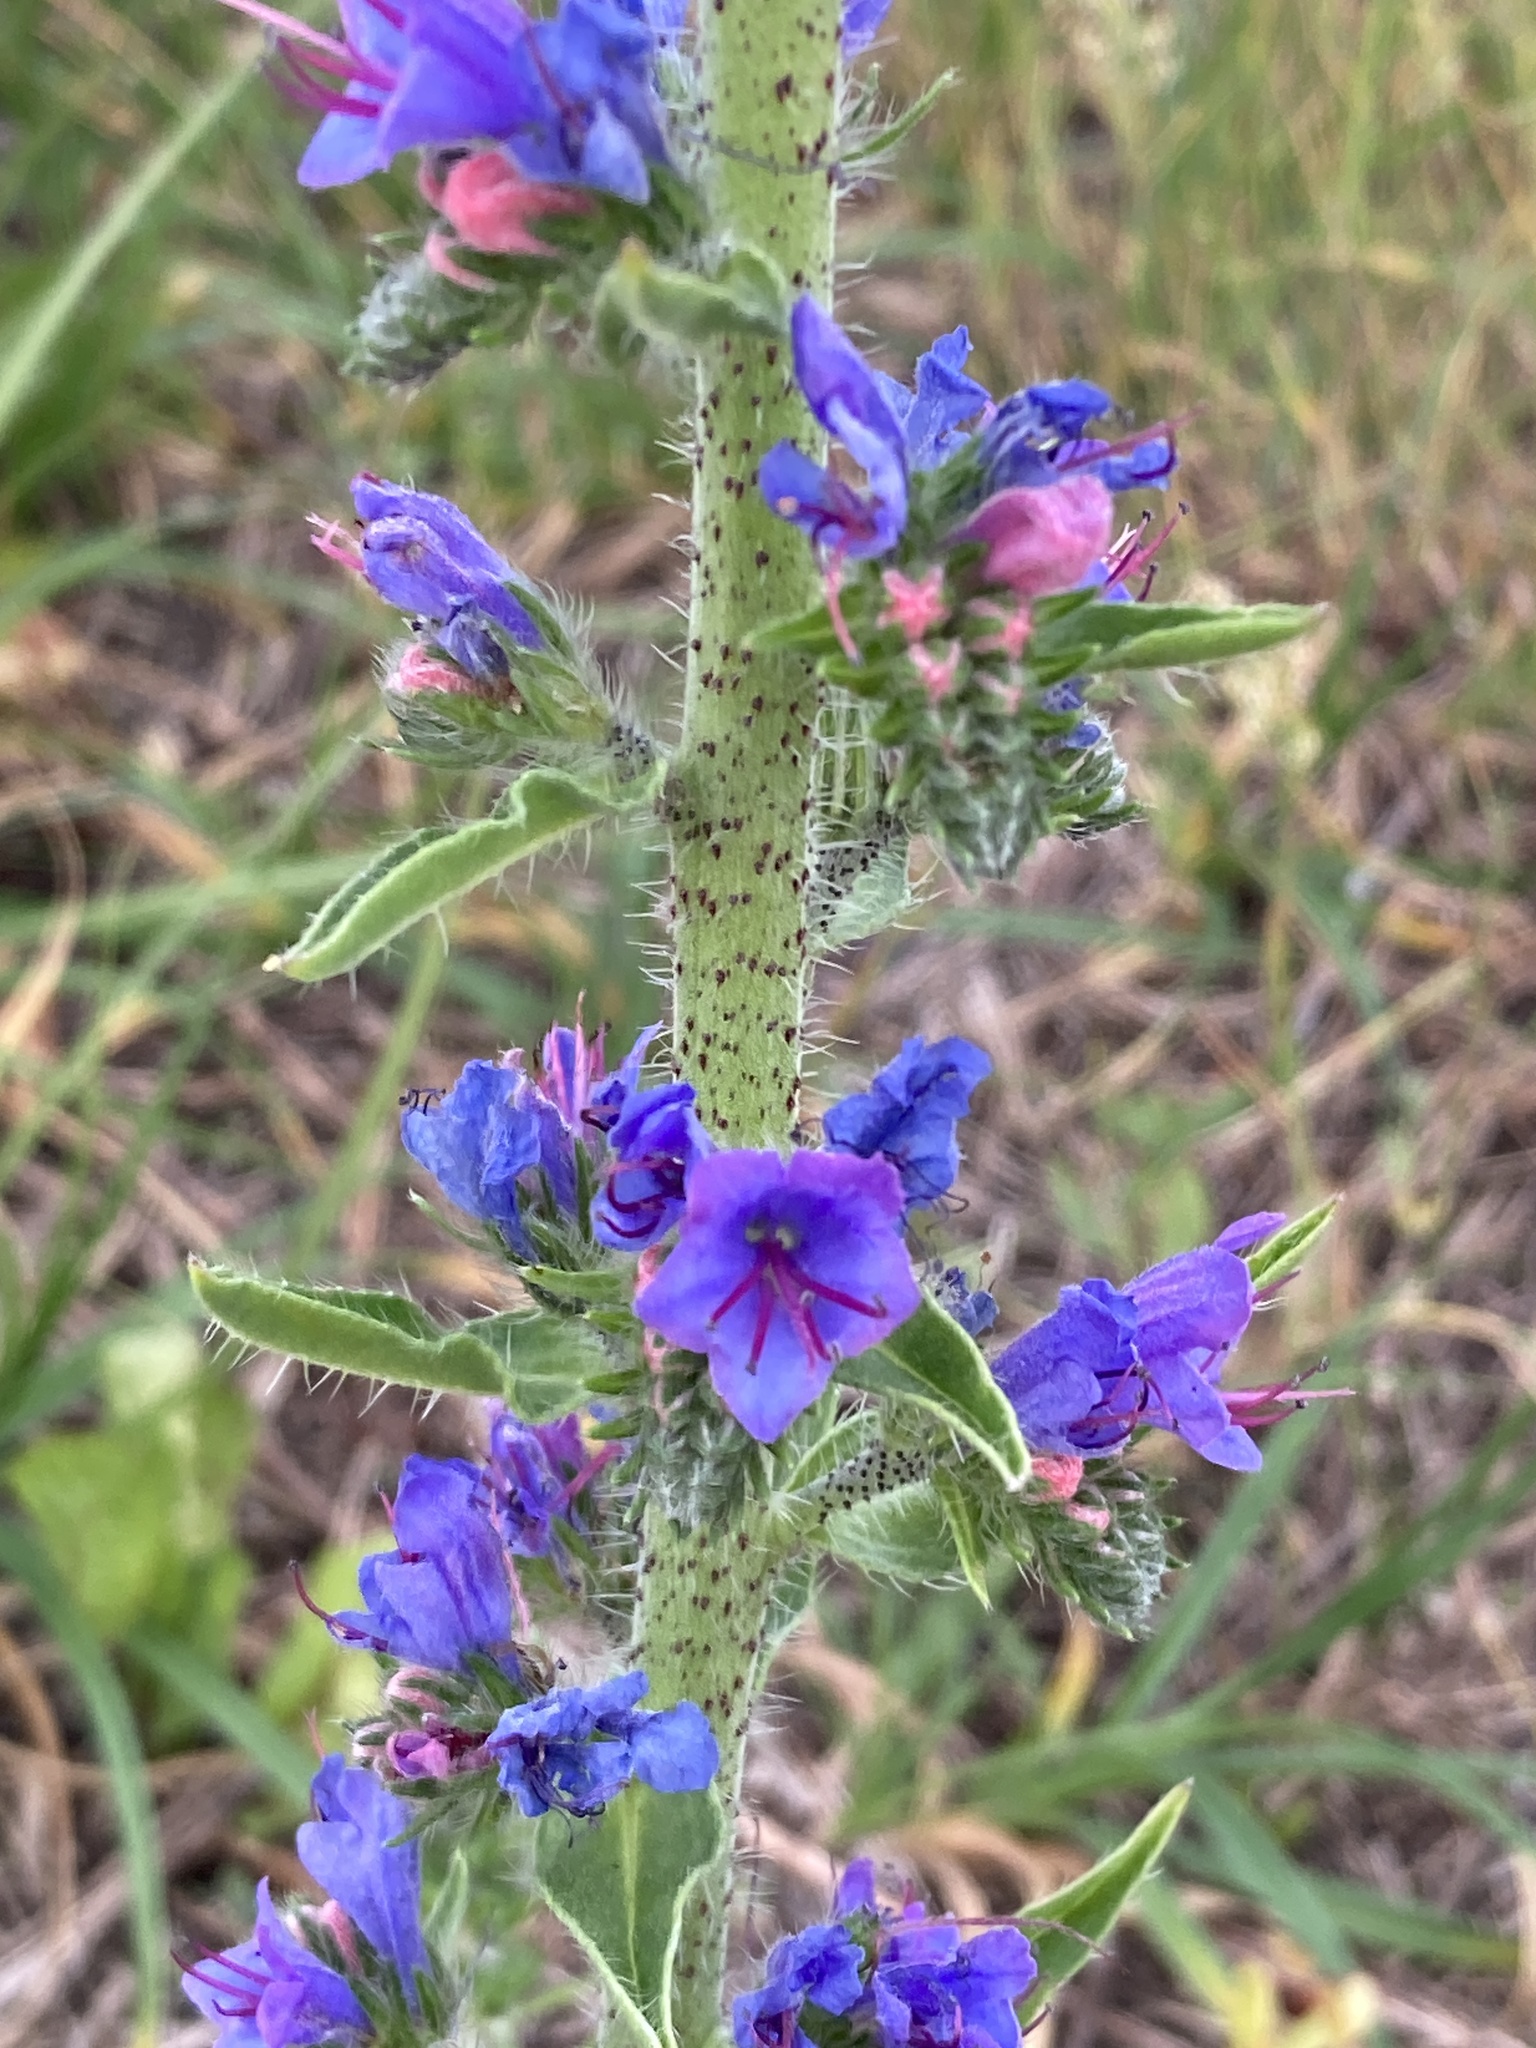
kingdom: Plantae
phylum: Tracheophyta
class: Magnoliopsida
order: Boraginales
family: Boraginaceae
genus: Echium
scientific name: Echium vulgare
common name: Common viper's bugloss
